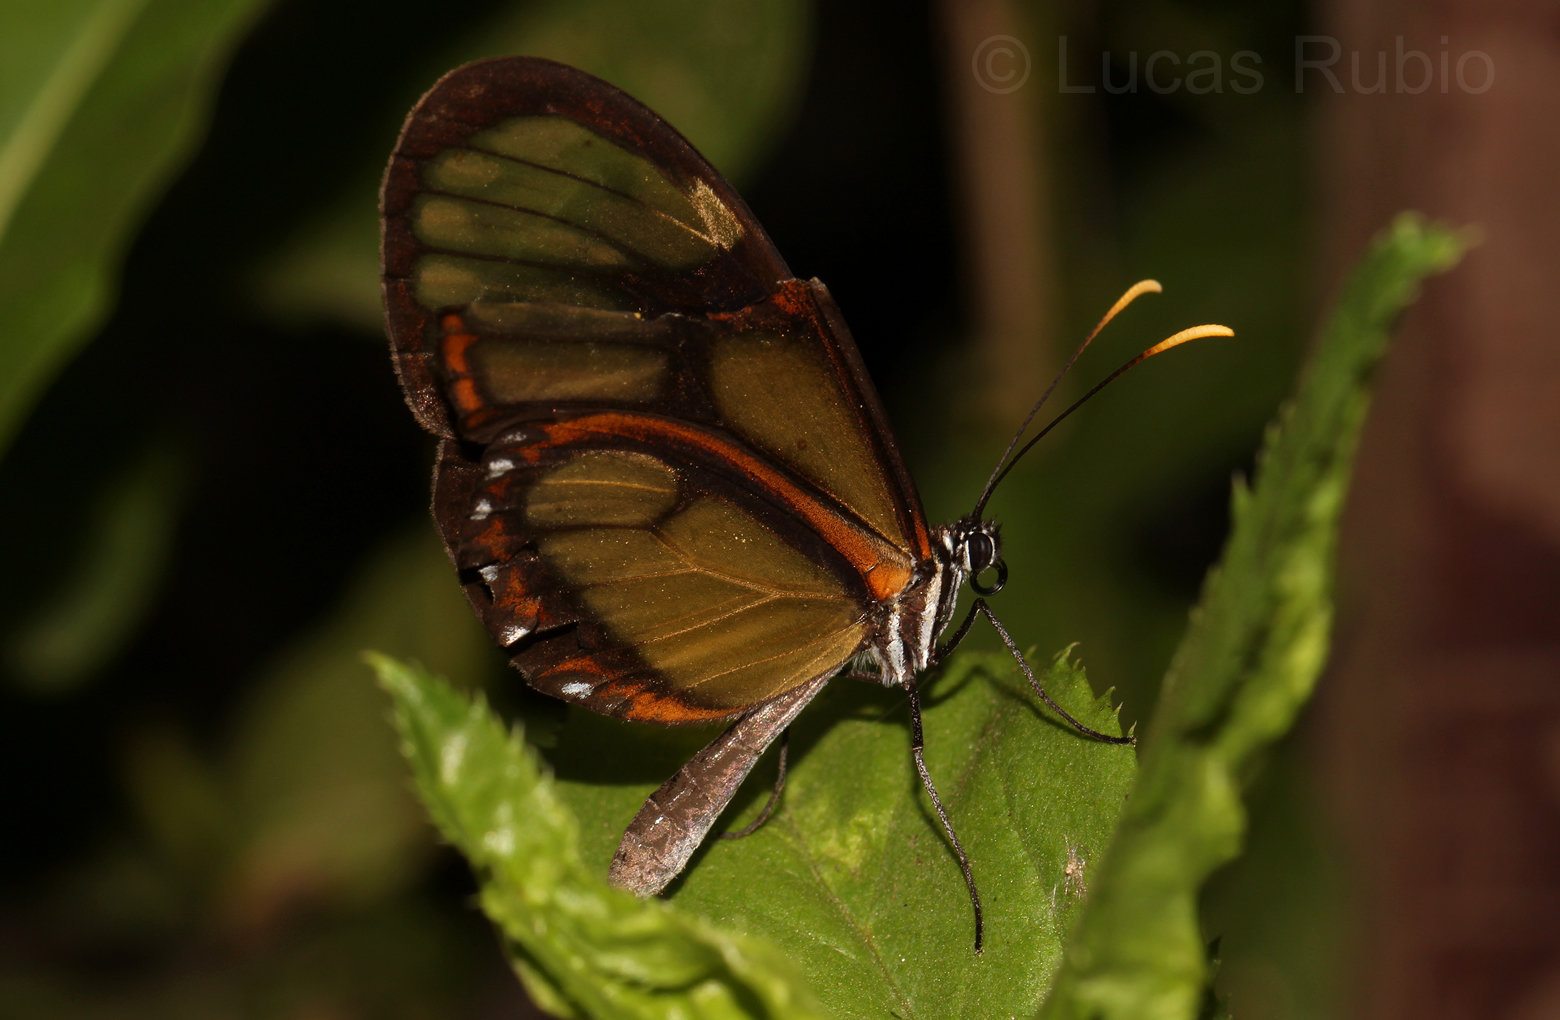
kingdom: Animalia
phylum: Arthropoda
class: Insecta
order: Lepidoptera
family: Nymphalidae
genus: Pteronymia
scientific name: Pteronymia ozia
